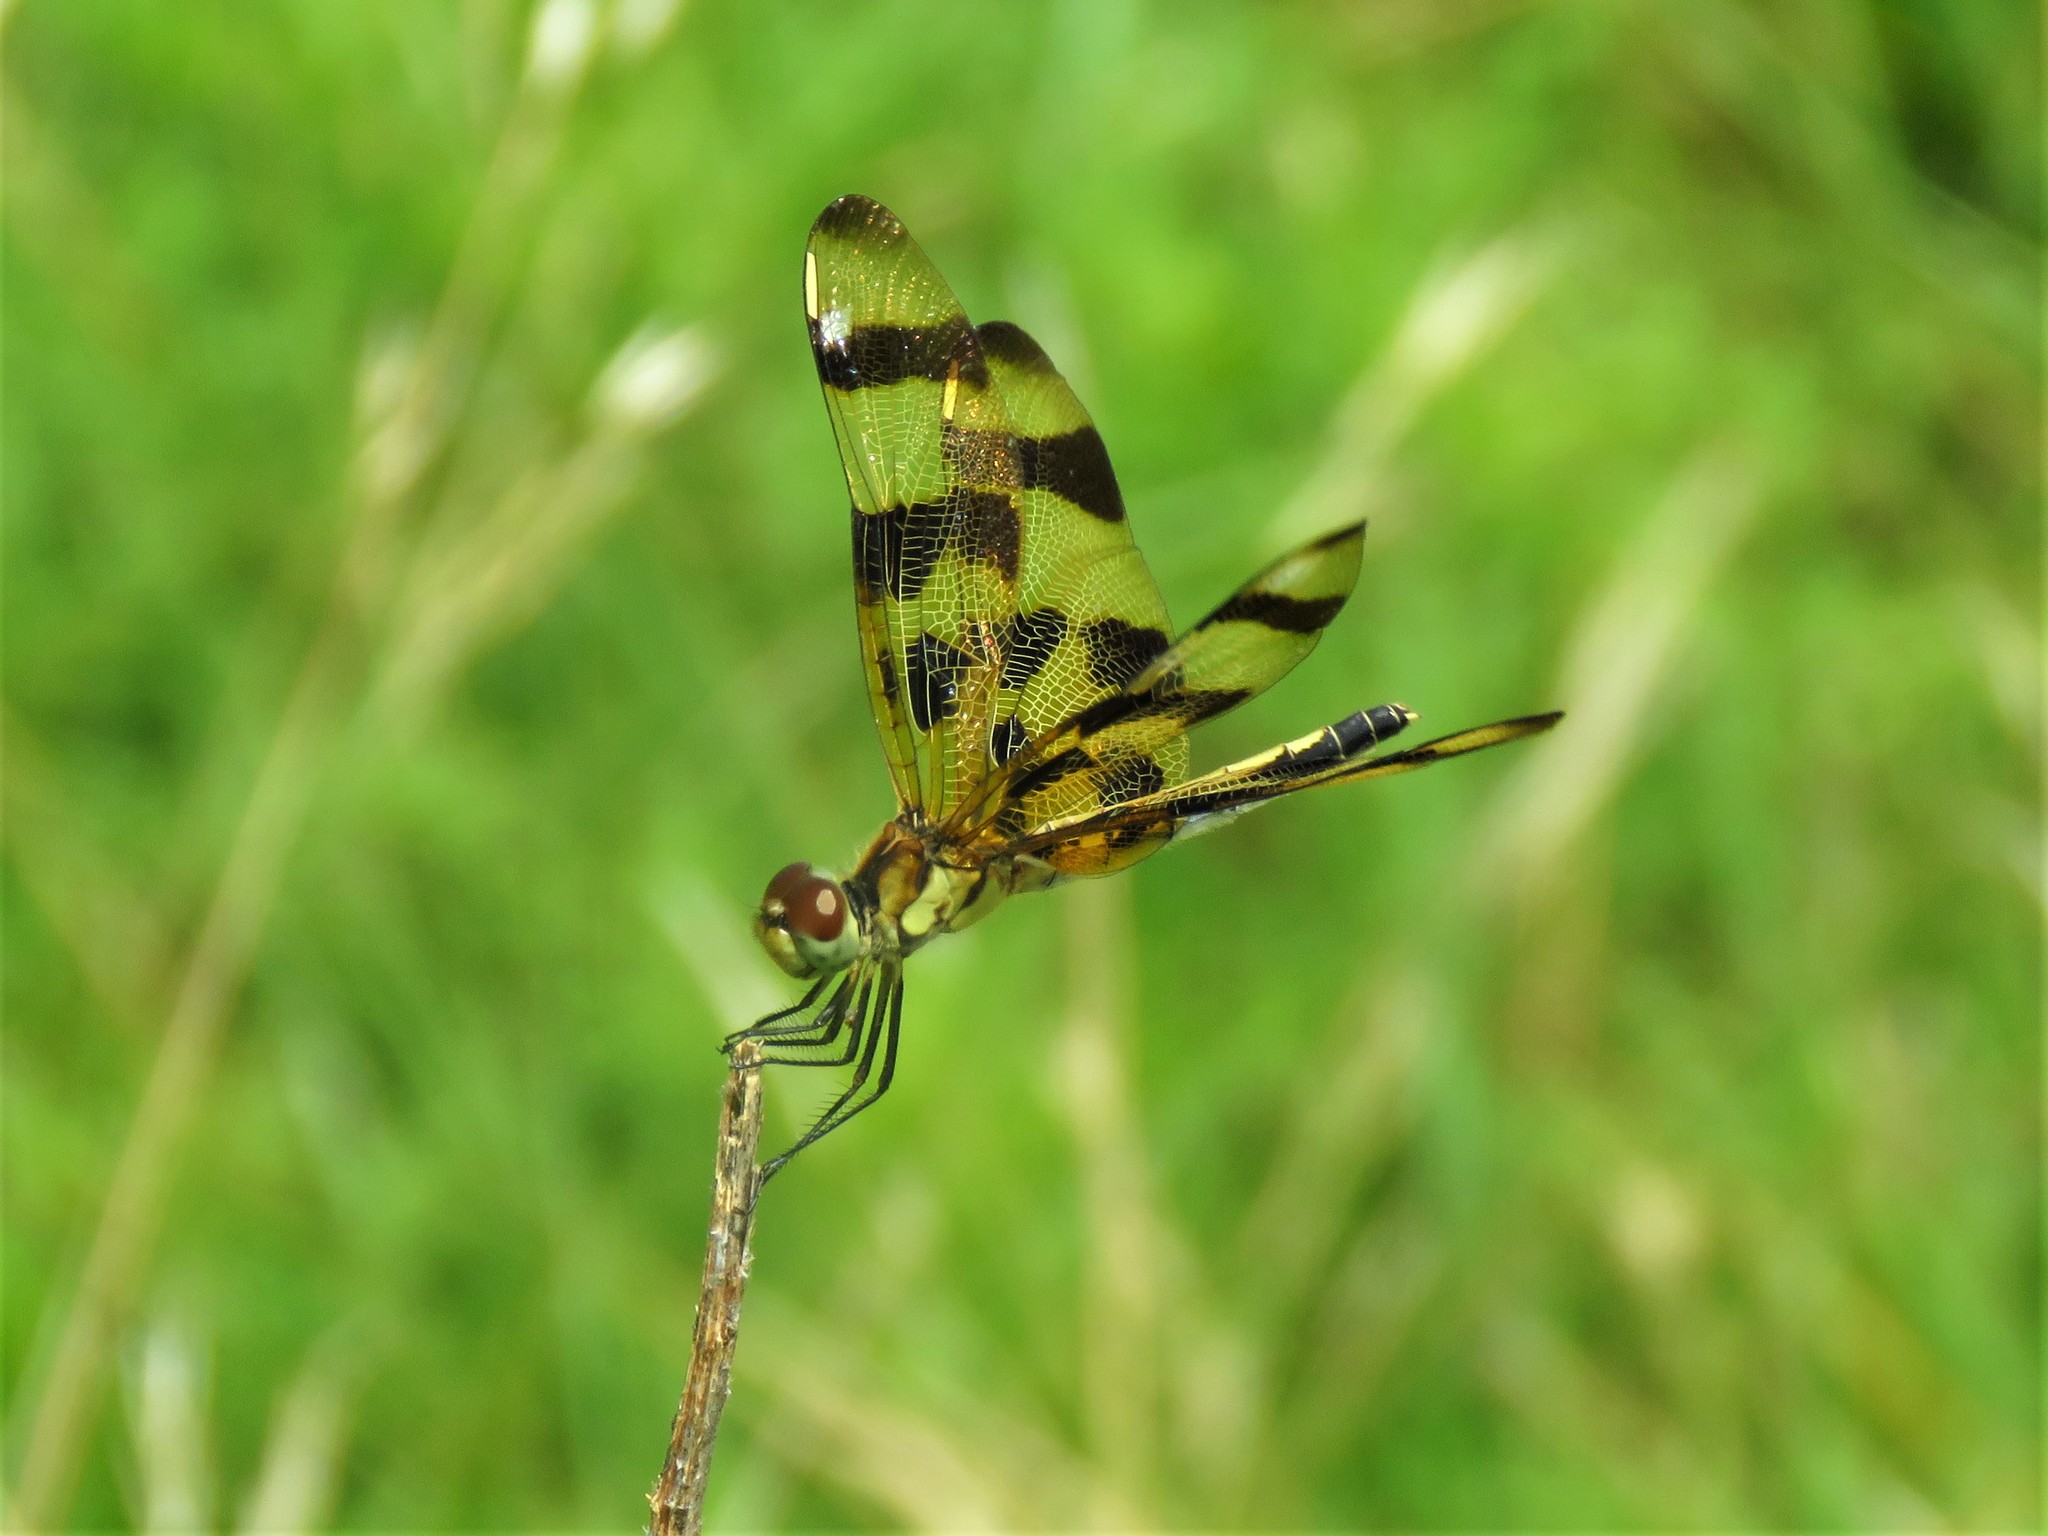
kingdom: Animalia
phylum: Arthropoda
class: Insecta
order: Odonata
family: Libellulidae
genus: Celithemis
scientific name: Celithemis eponina
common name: Halloween pennant
